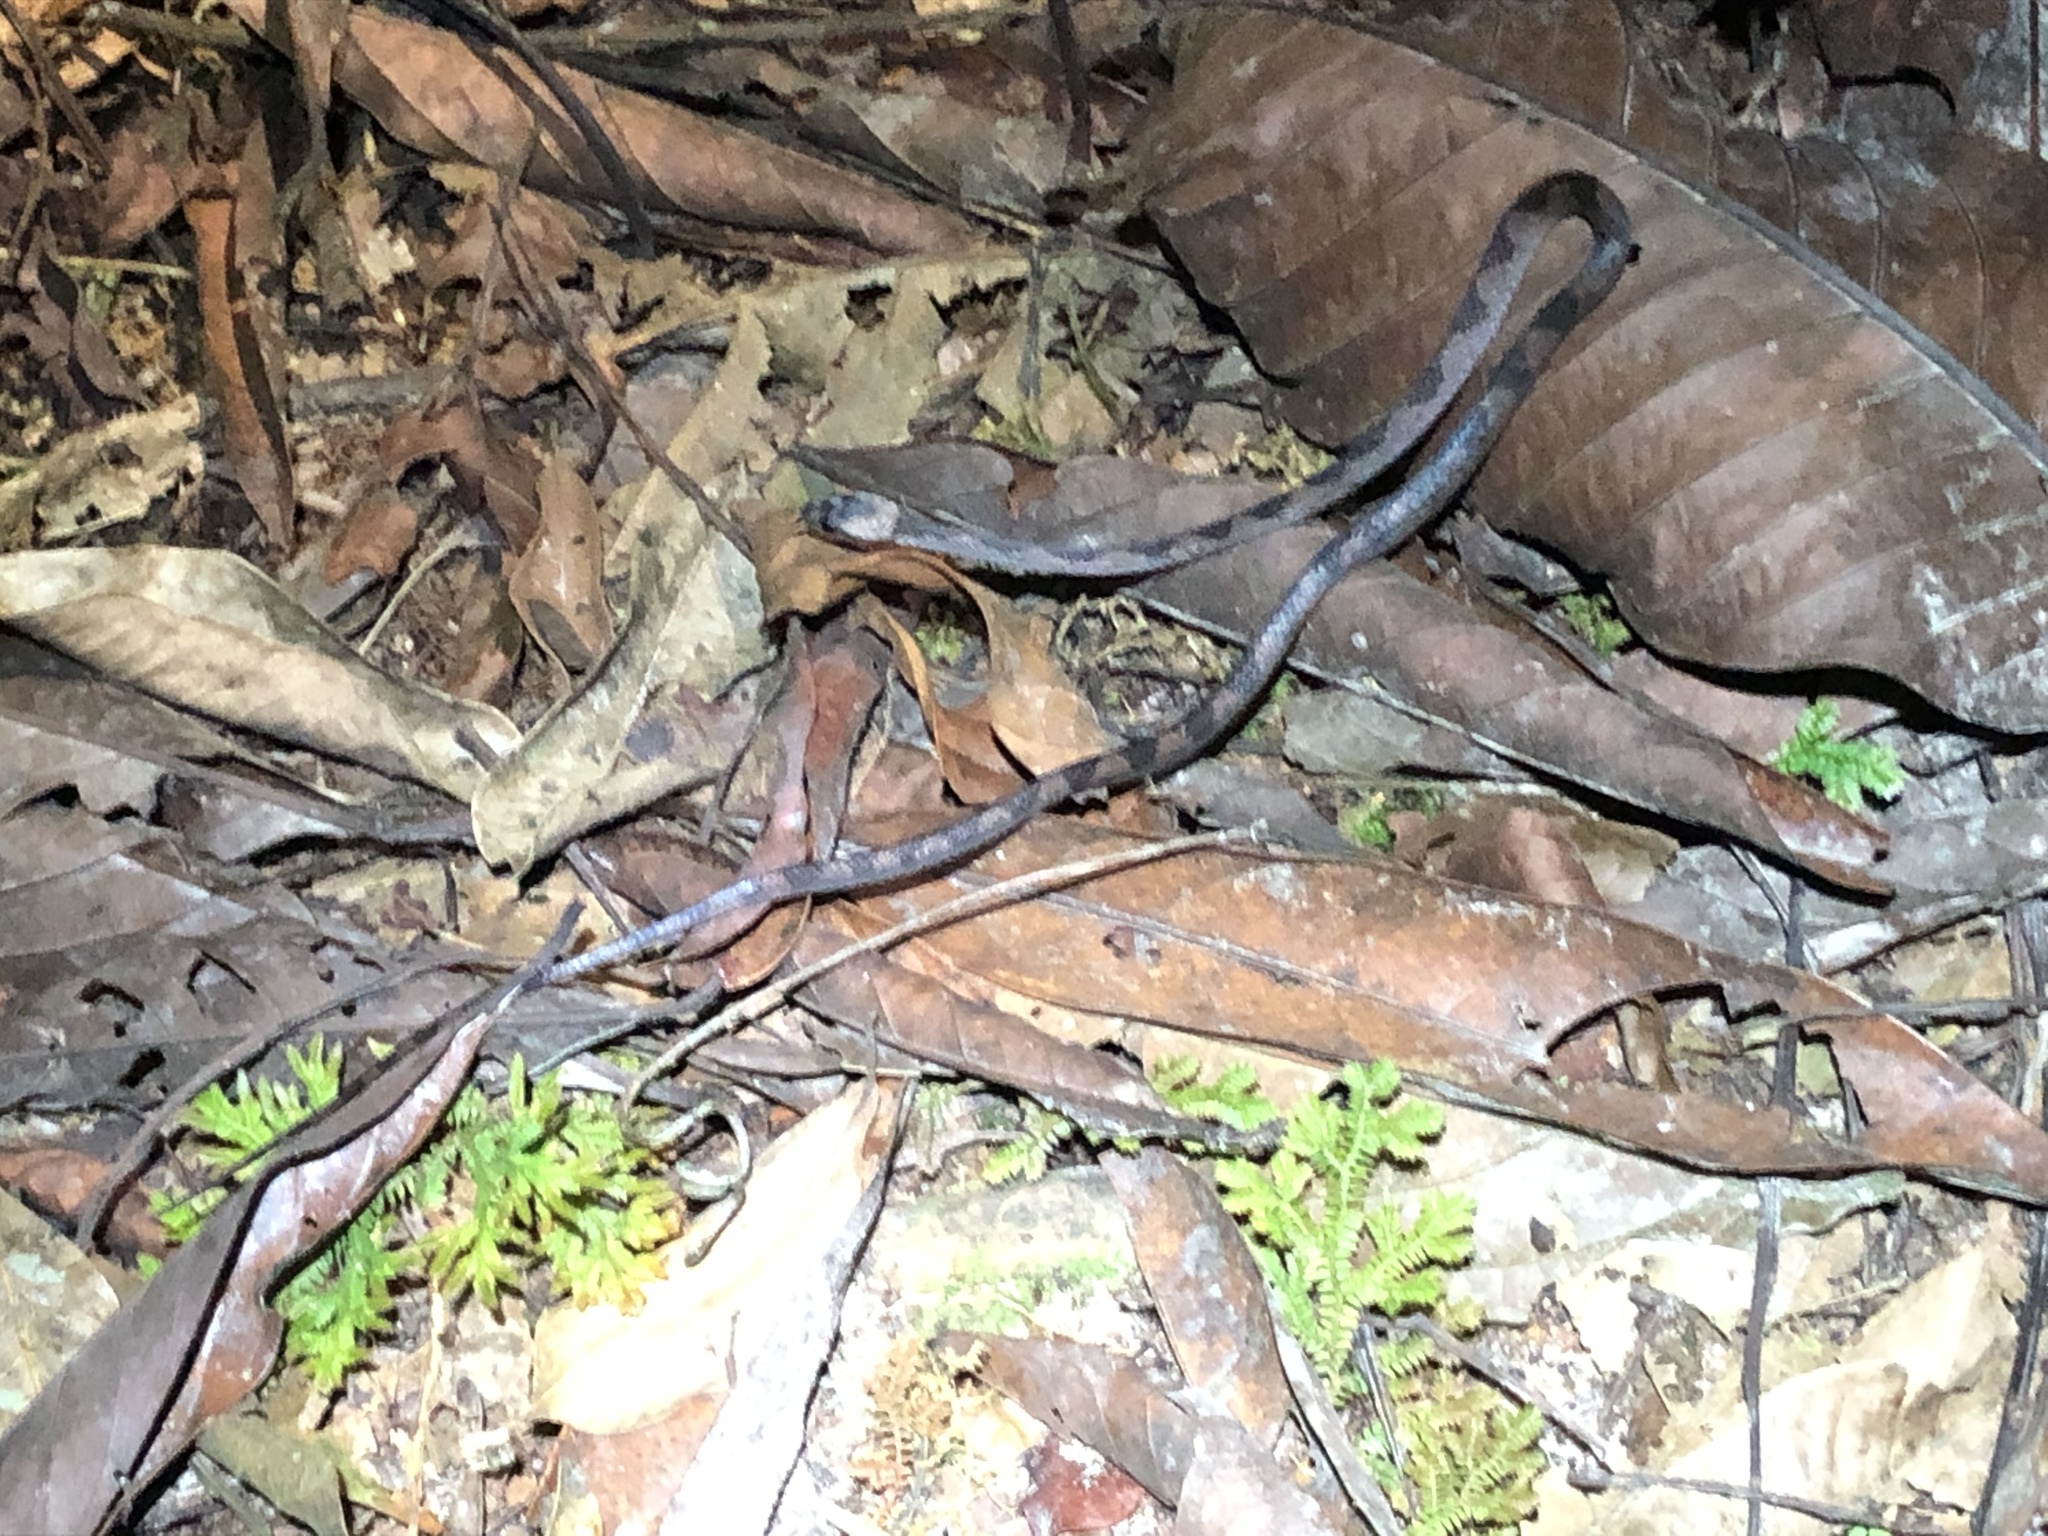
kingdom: Animalia
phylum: Chordata
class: Squamata
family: Colubridae
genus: Leptodeira
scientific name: Leptodeira annulata
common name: Banded cat-eyed snake
